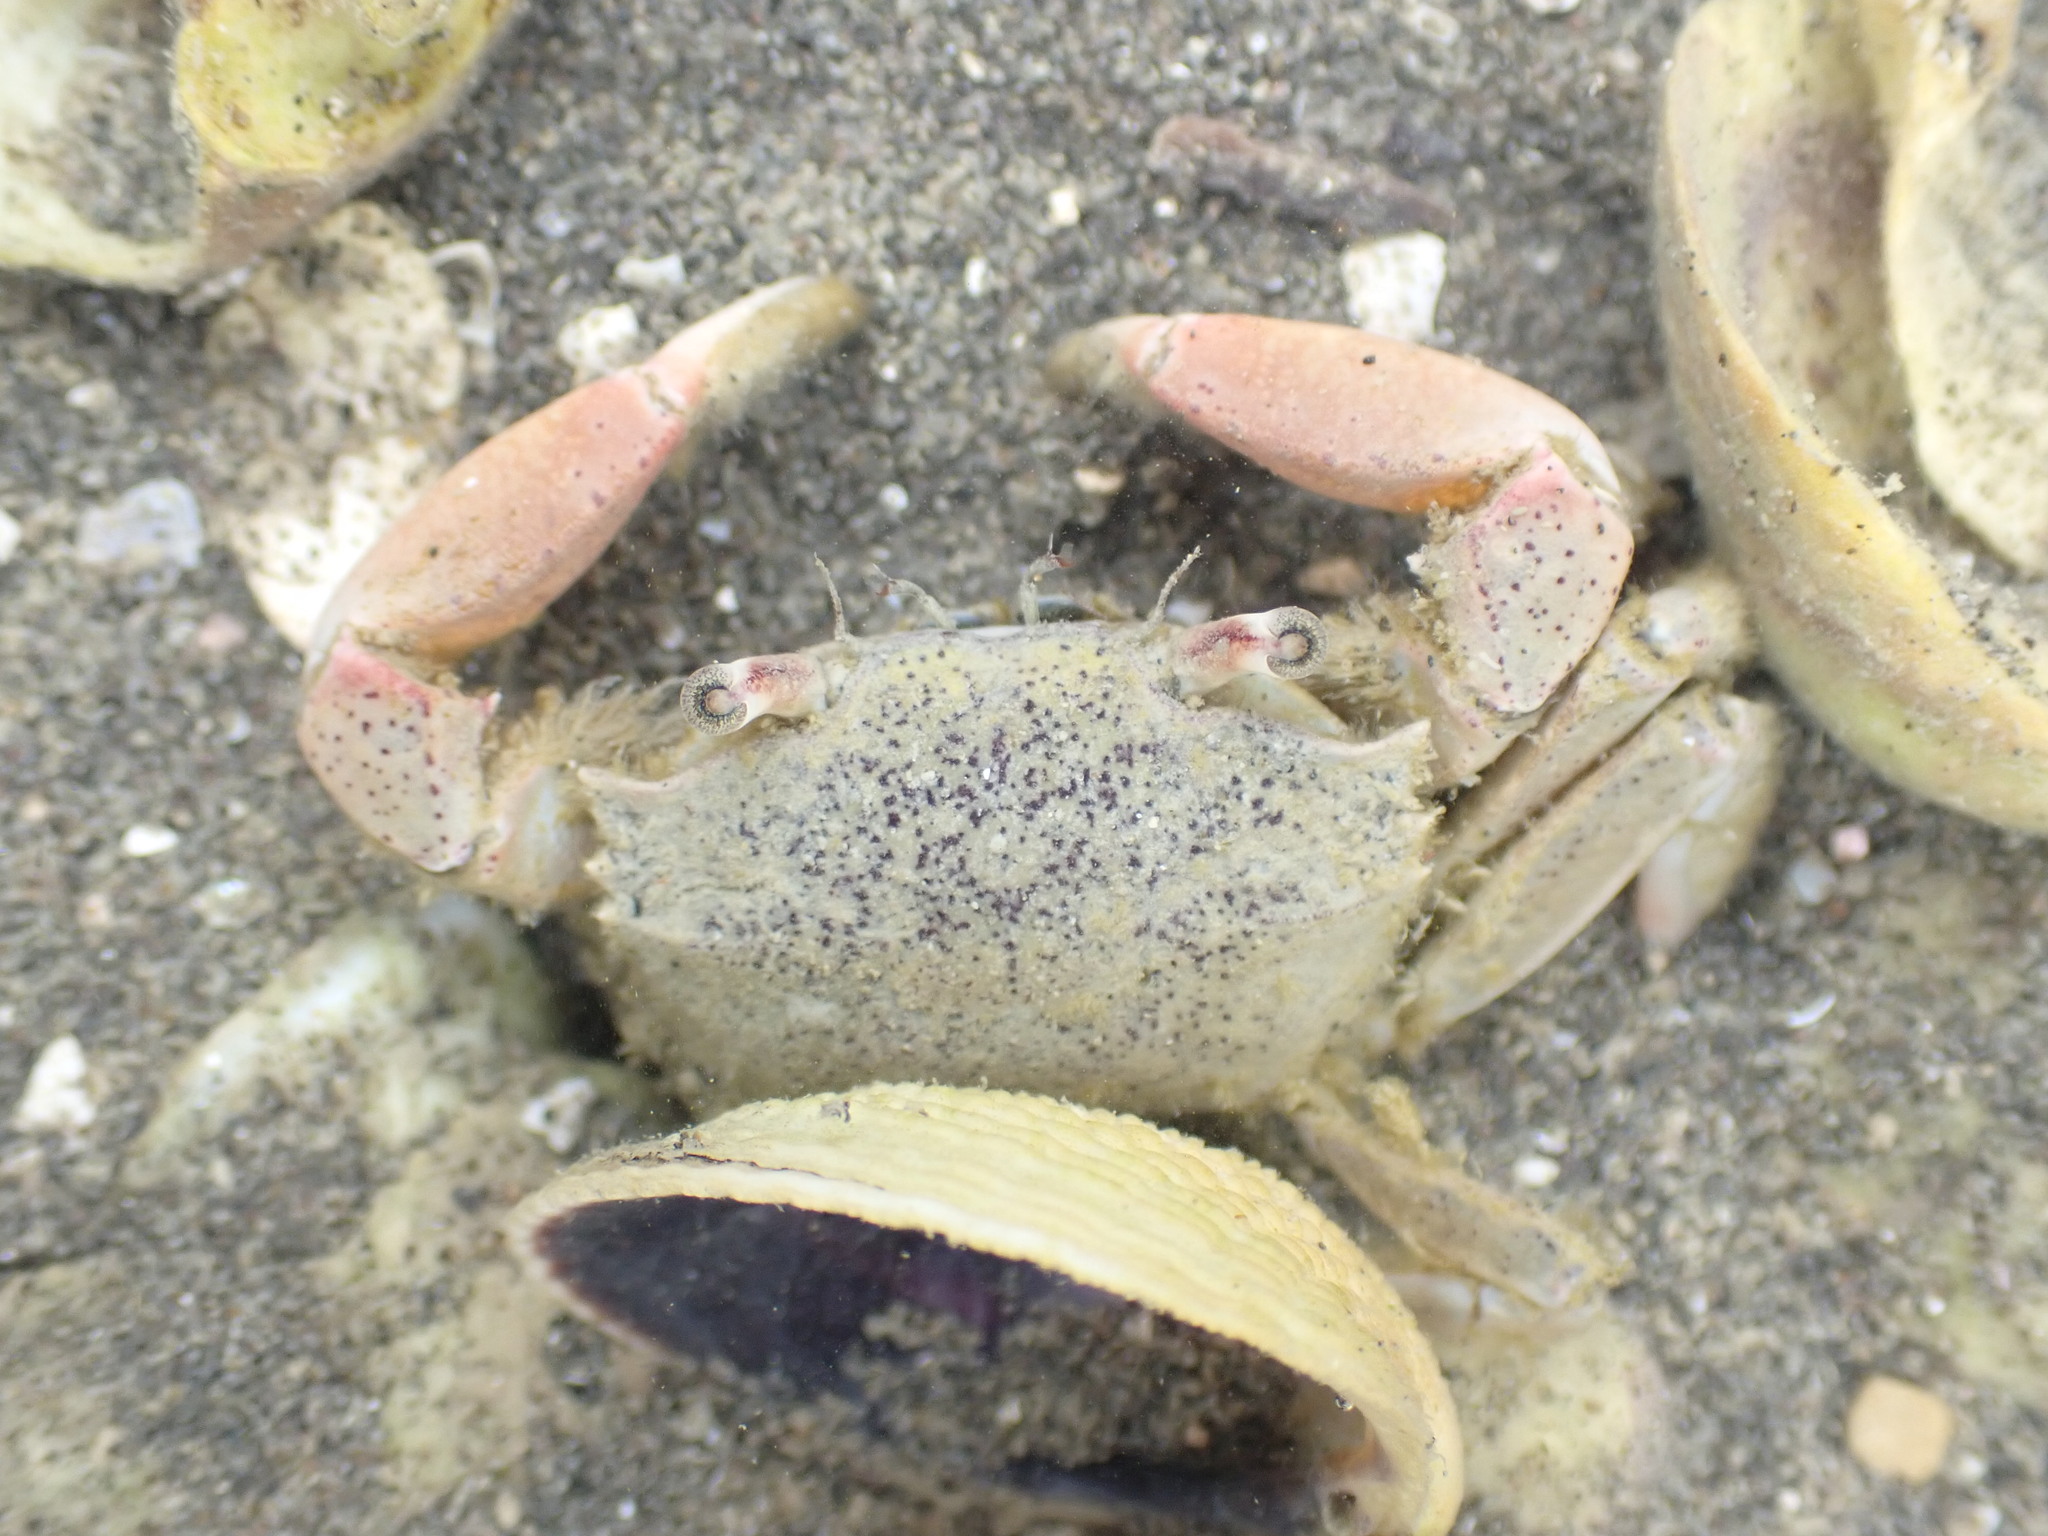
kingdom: Animalia
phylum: Arthropoda
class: Malacostraca
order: Decapoda
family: Macrophthalmidae
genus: Hemiplax
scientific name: Hemiplax hirtipes
